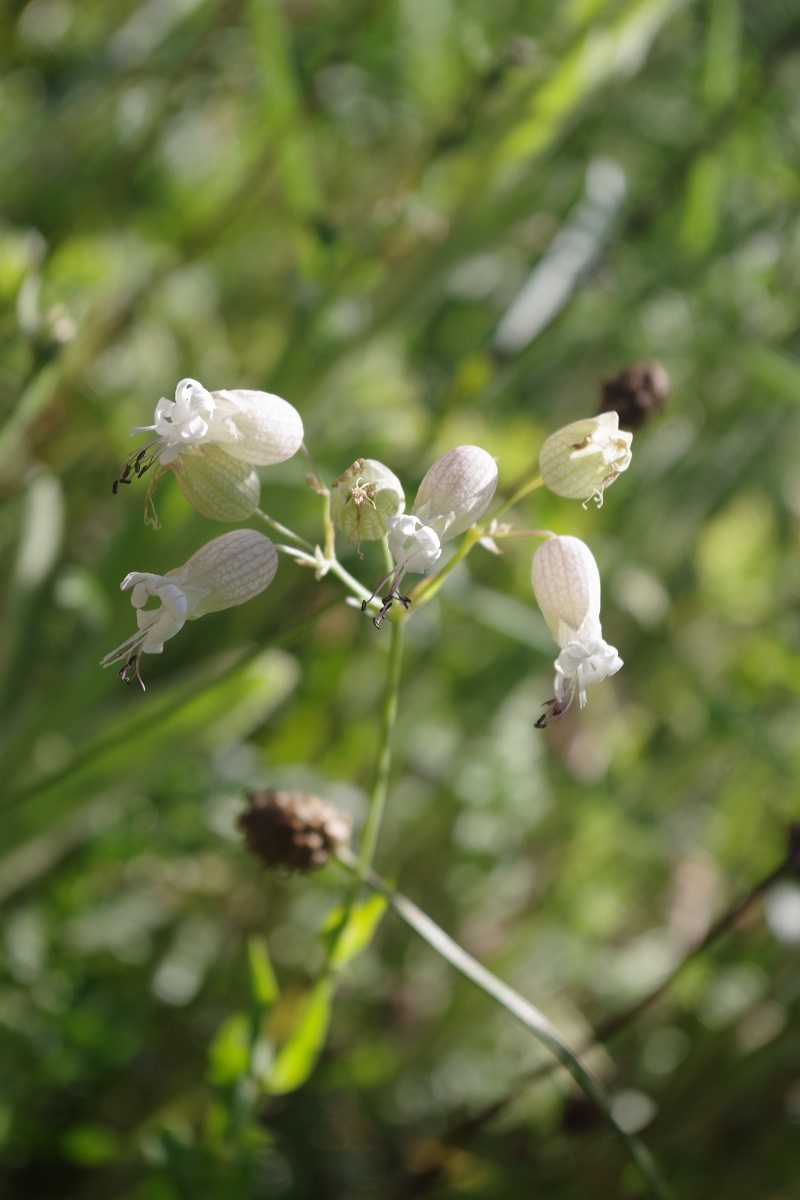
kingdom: Plantae
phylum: Tracheophyta
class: Magnoliopsida
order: Caryophyllales
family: Caryophyllaceae
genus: Silene
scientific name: Silene vulgaris
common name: Bladder campion
